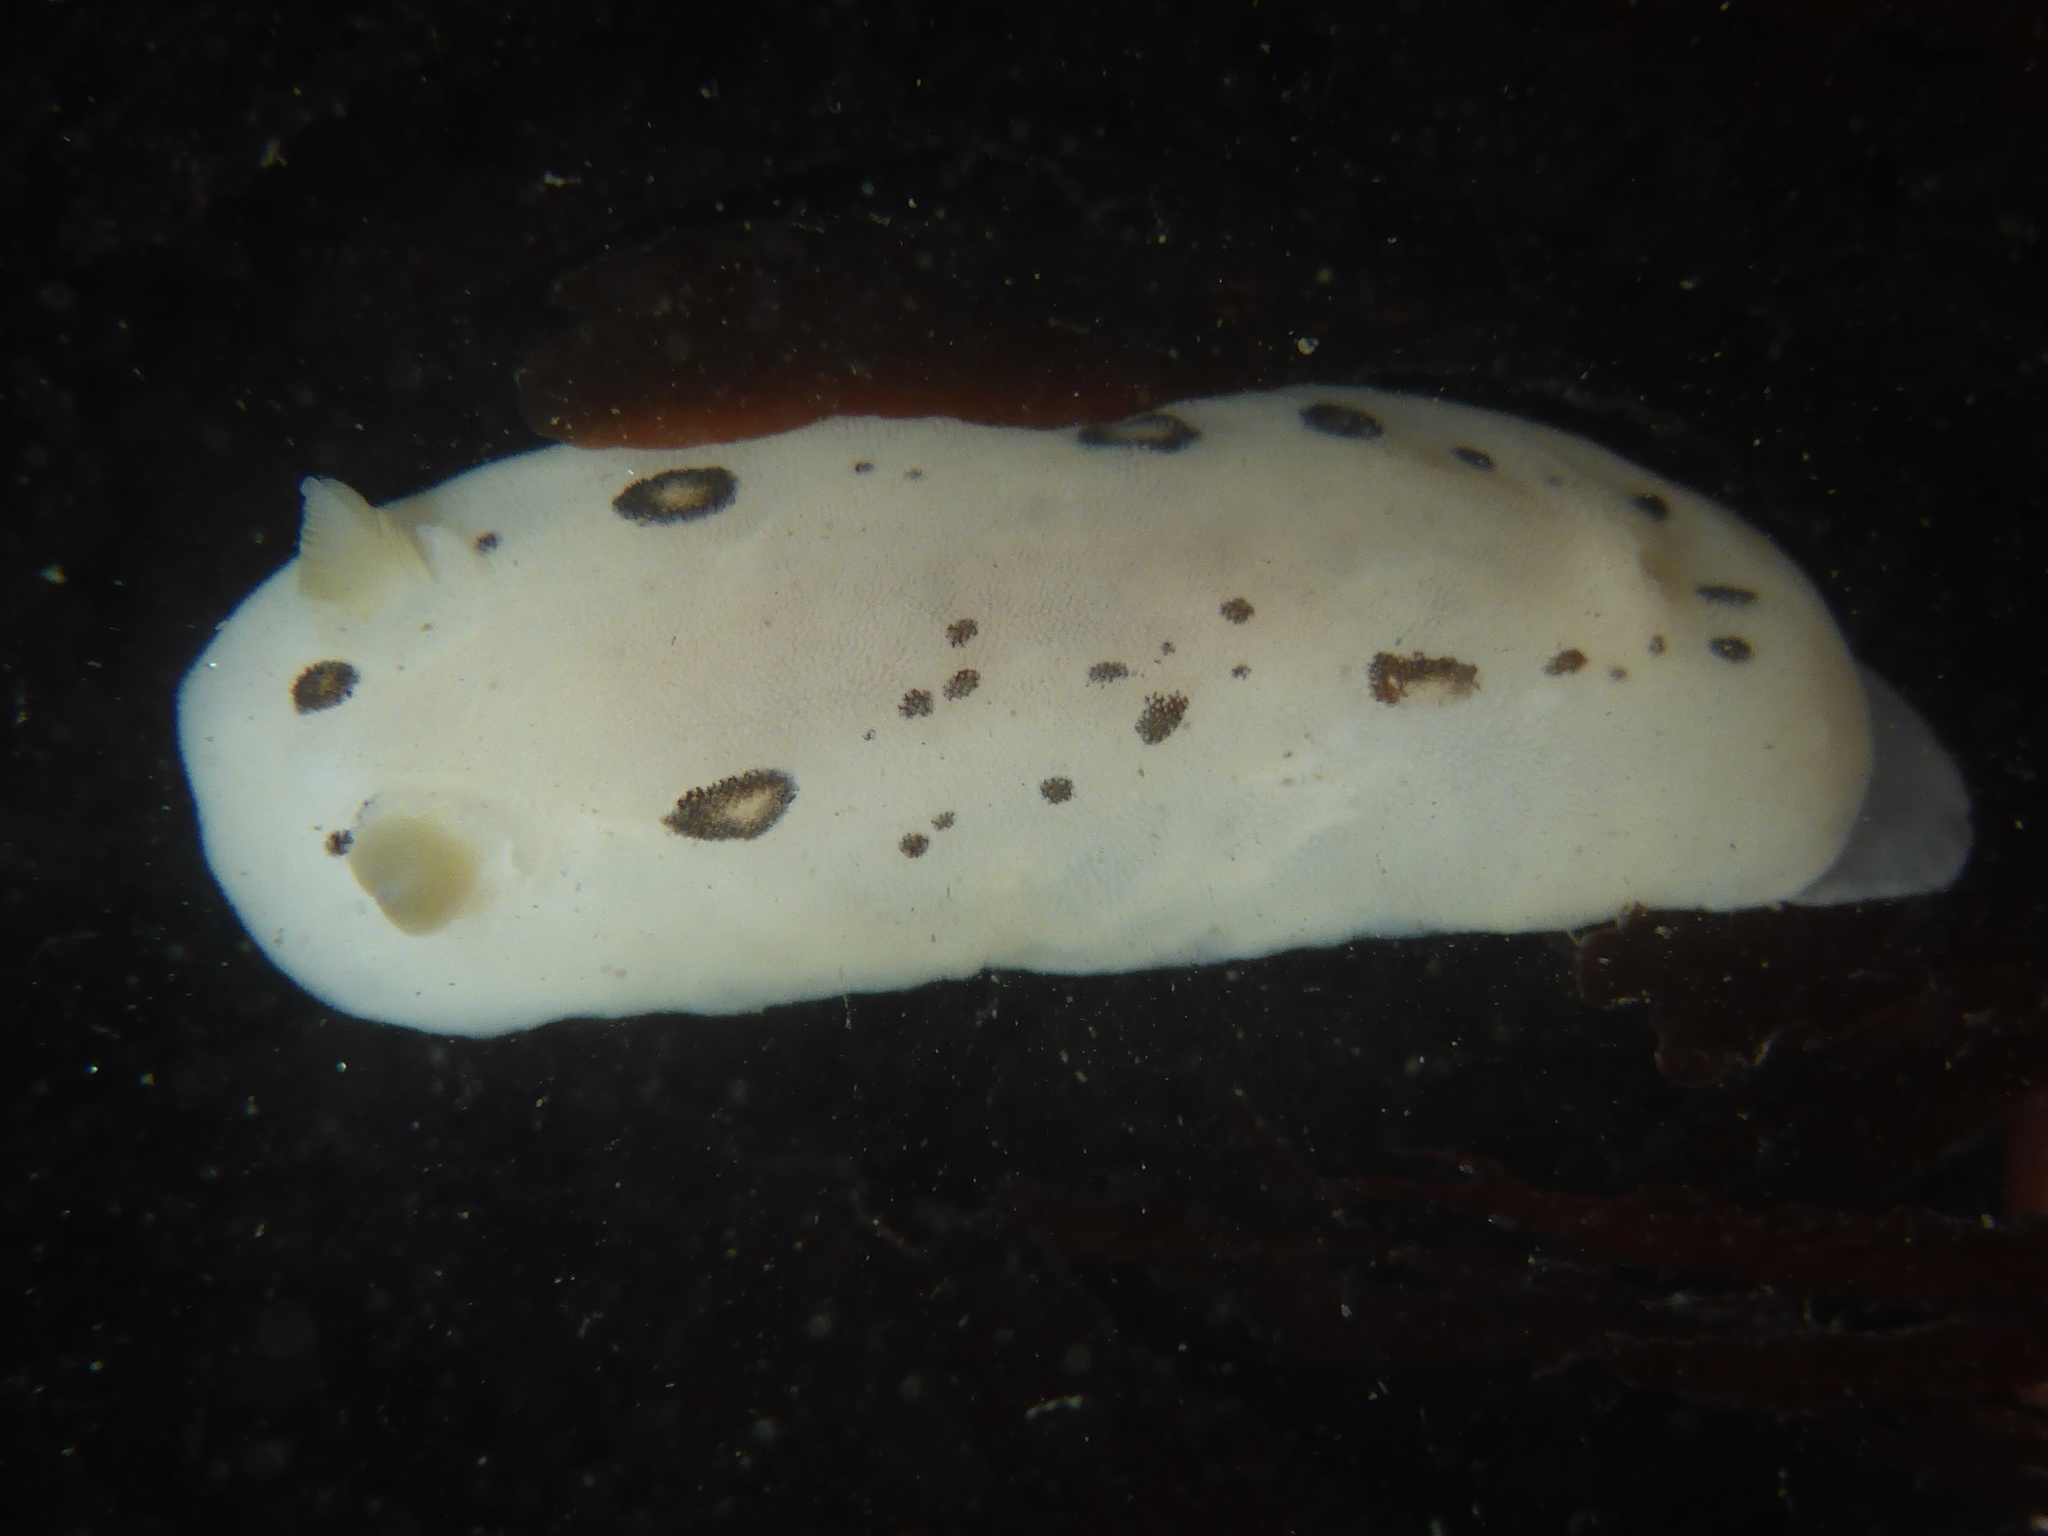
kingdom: Animalia
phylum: Mollusca
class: Gastropoda
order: Nudibranchia
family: Discodorididae
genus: Diaulula
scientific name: Diaulula sandiegensis
